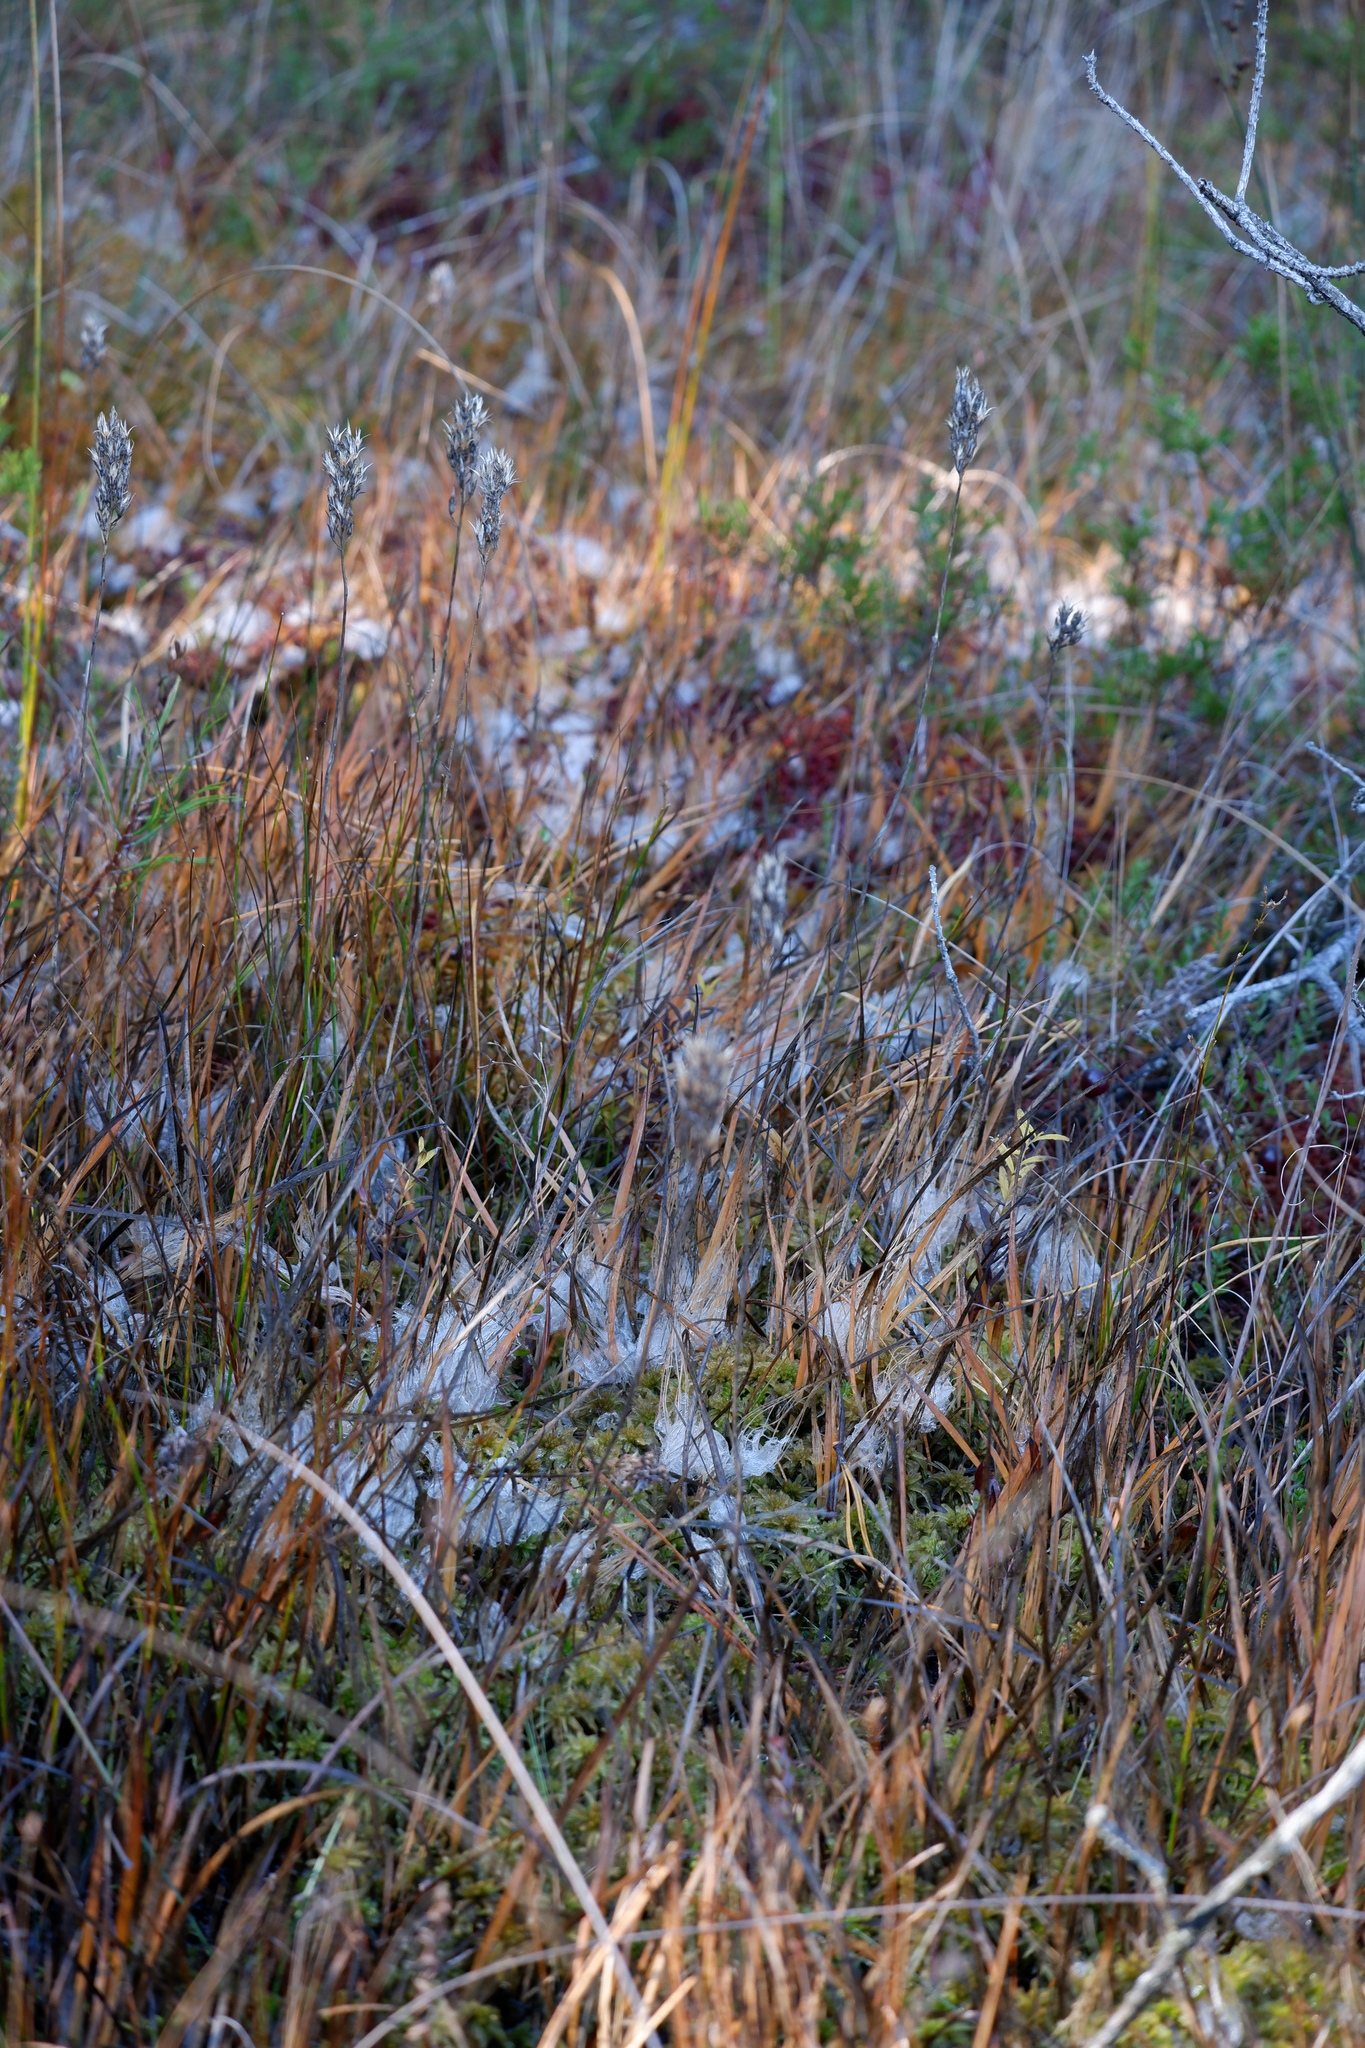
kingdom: Plantae
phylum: Tracheophyta
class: Liliopsida
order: Dioscoreales
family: Nartheciaceae
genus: Narthecium
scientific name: Narthecium americanum
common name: Bog-asphodel
